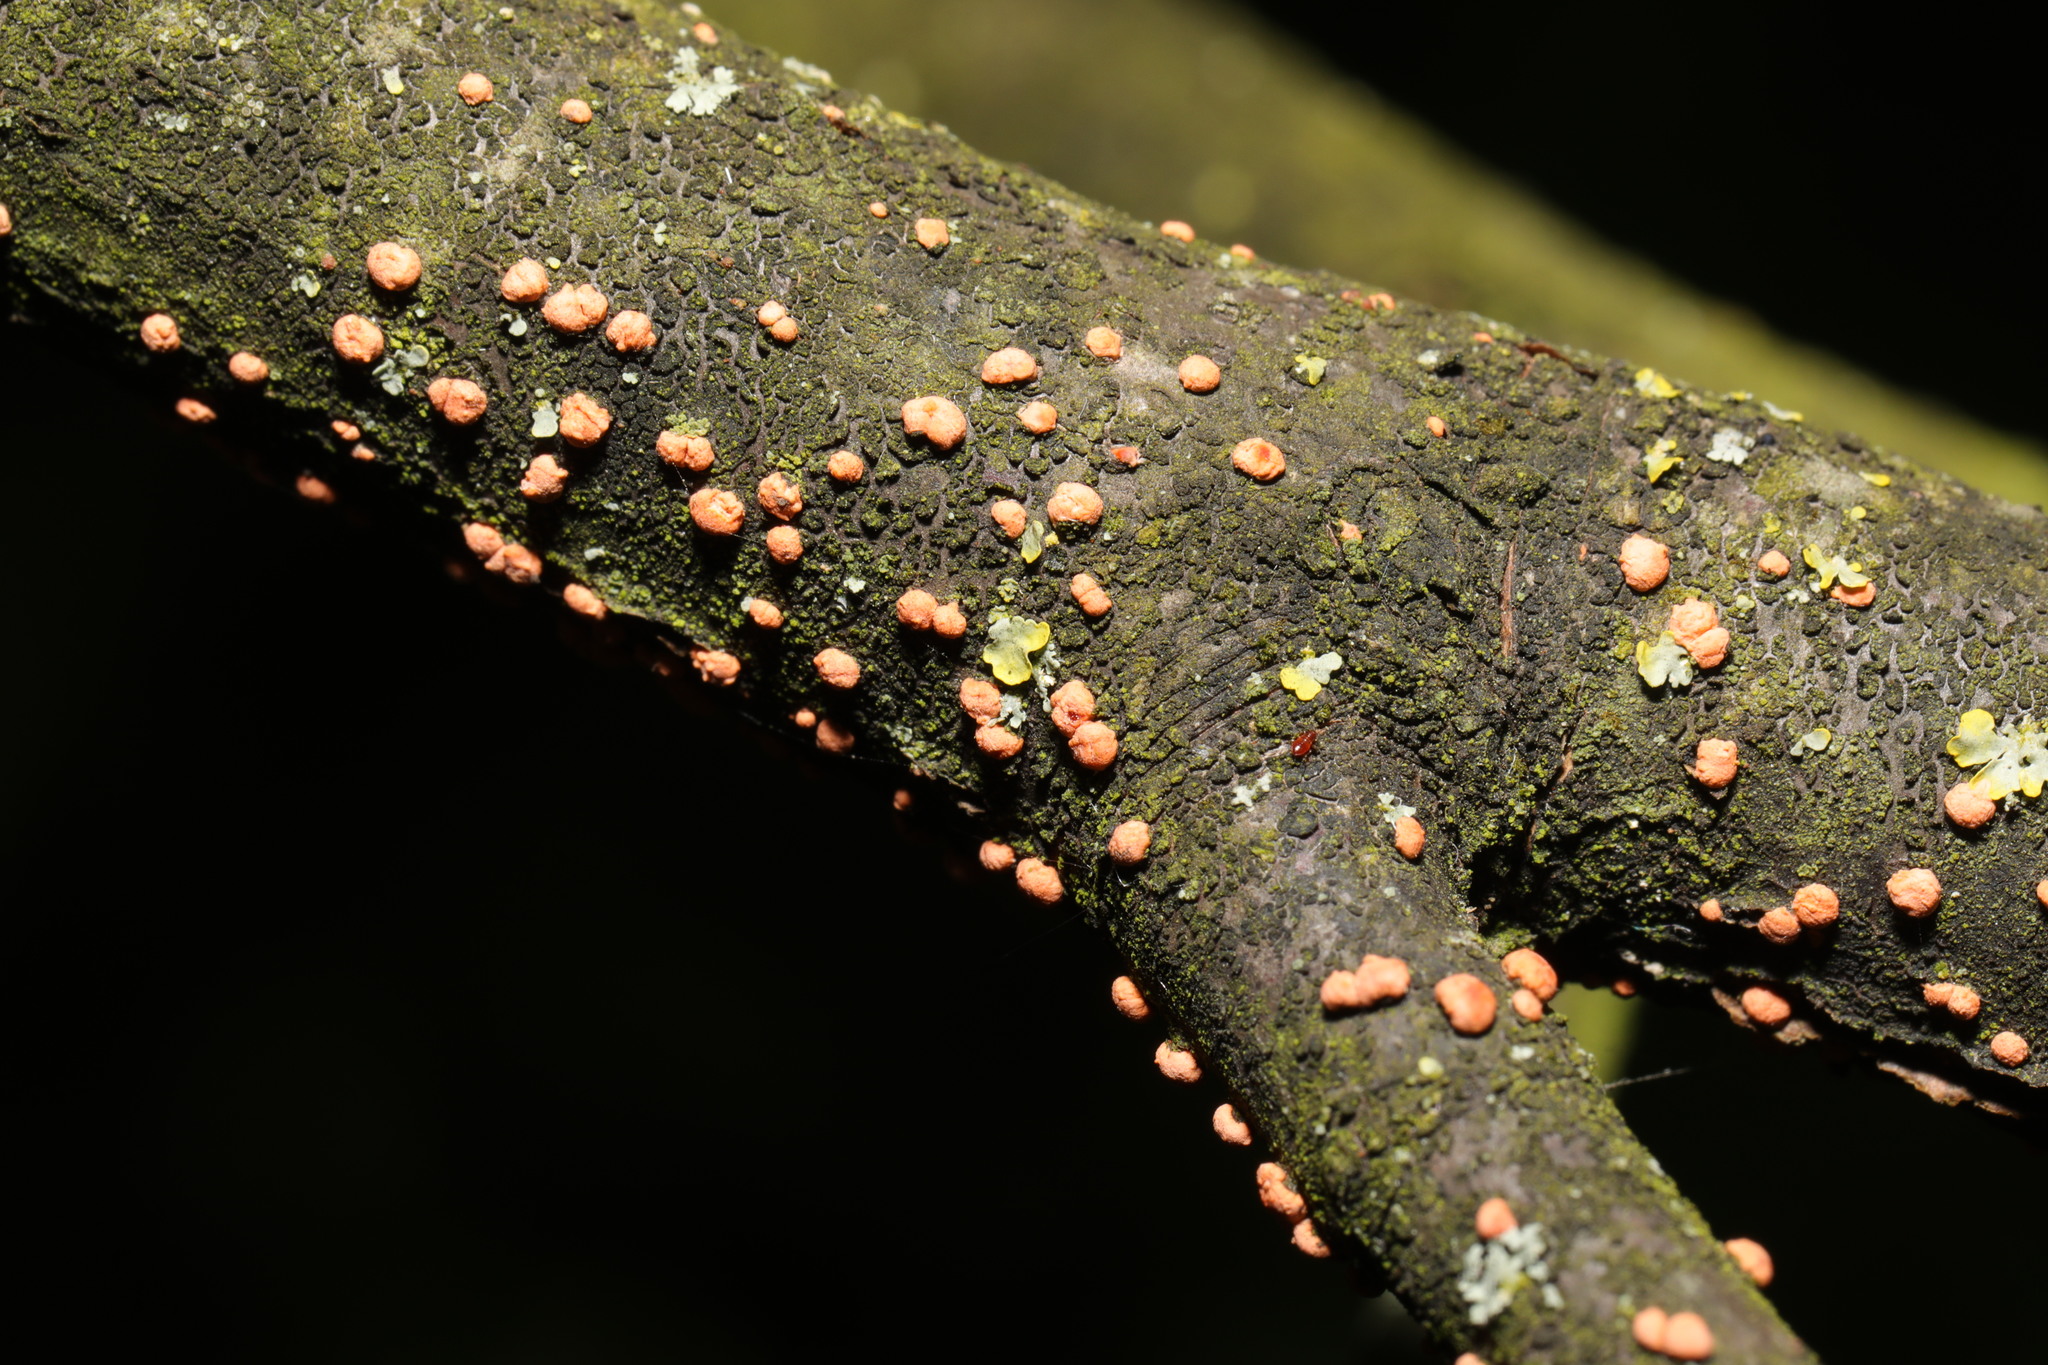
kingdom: Fungi
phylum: Ascomycota
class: Sordariomycetes
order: Hypocreales
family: Nectriaceae
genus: Nectria
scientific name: Nectria cinnabarina
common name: Coral spot
